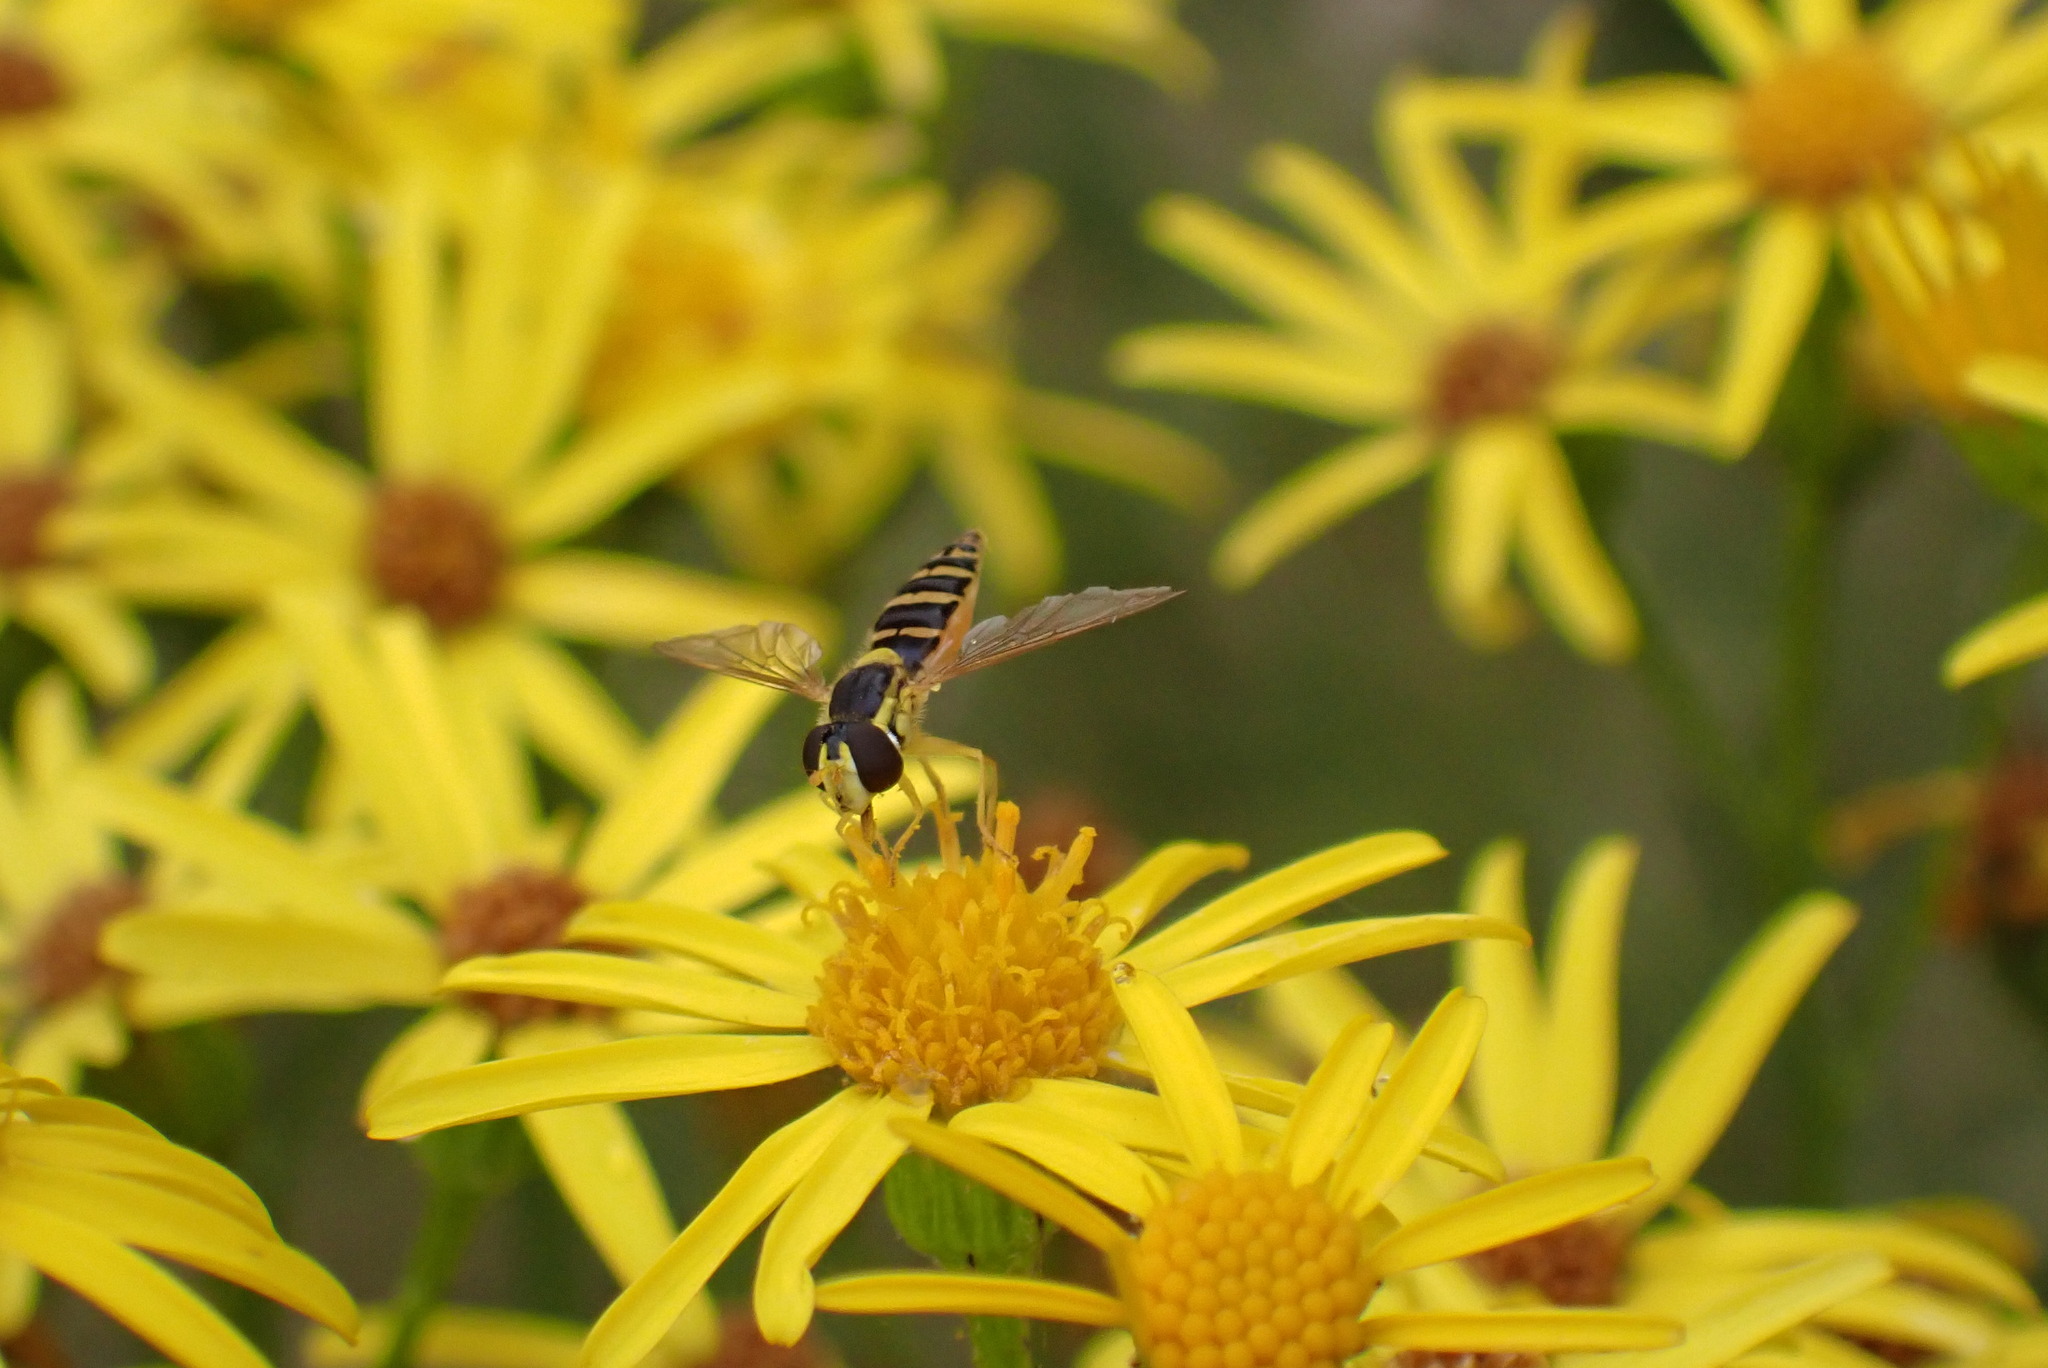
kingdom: Animalia
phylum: Arthropoda
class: Insecta
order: Diptera
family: Syrphidae
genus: Sphaerophoria
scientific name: Sphaerophoria
